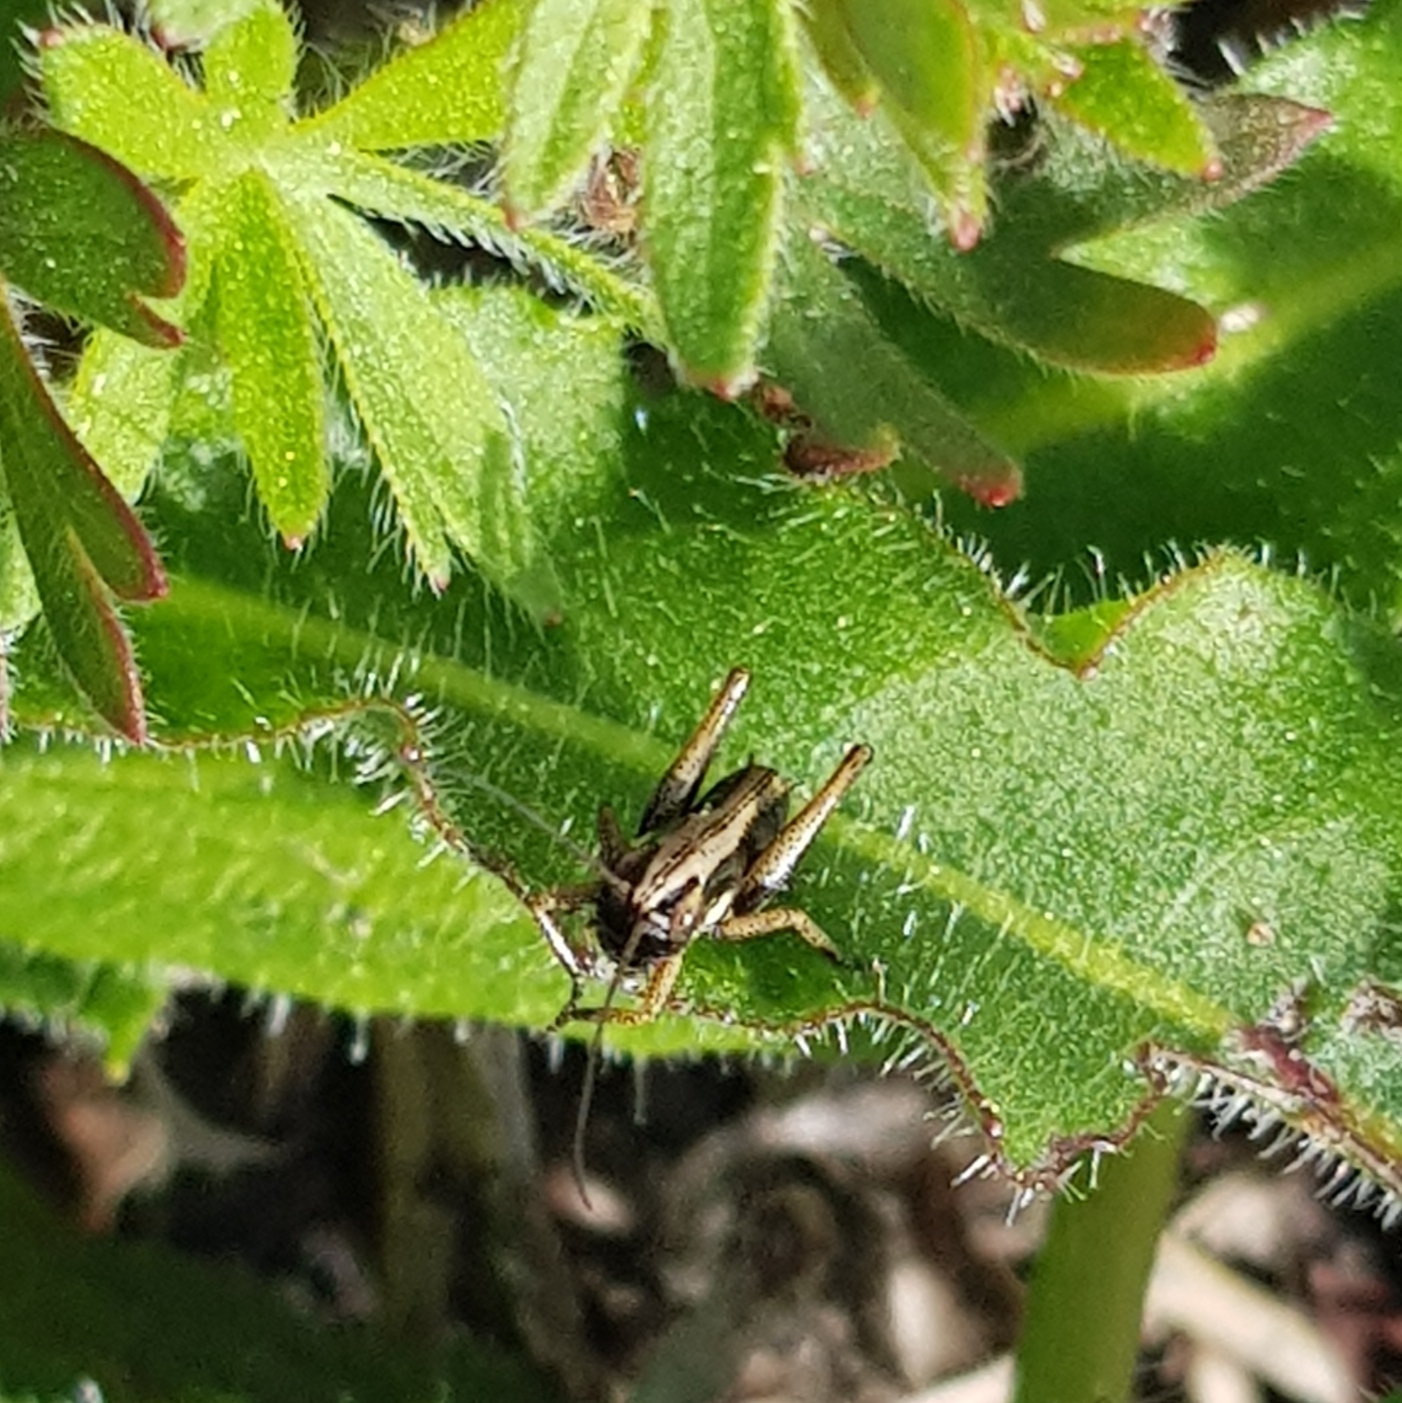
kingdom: Animalia
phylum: Arthropoda
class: Insecta
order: Orthoptera
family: Tettigoniidae
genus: Platycleis
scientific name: Platycleis albopunctata
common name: Grey bush-cricket
